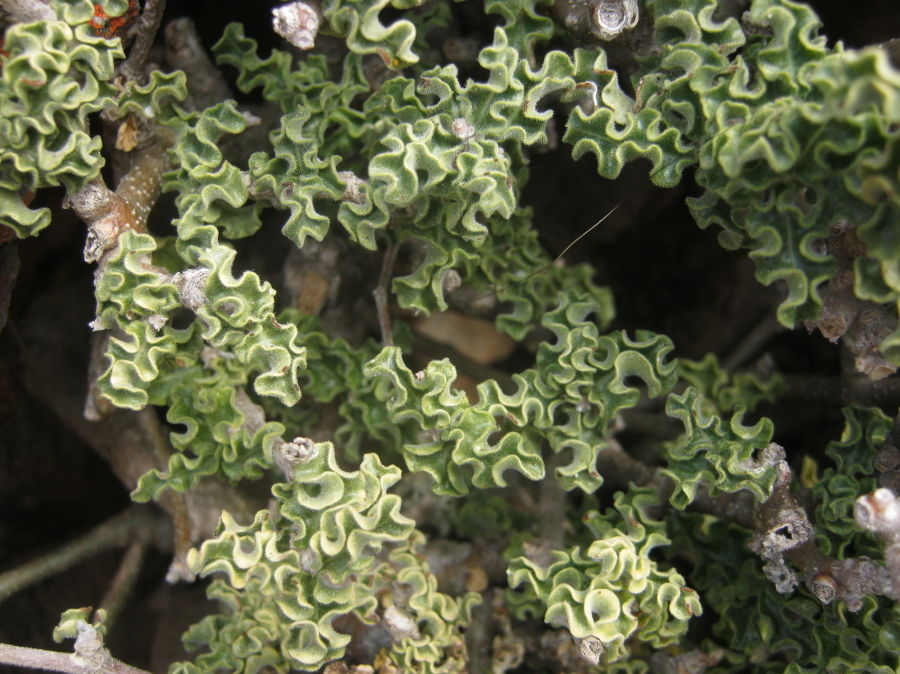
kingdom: Plantae
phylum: Tracheophyta
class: Magnoliopsida
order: Gentianales
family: Apocynaceae
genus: Fockea
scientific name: Fockea capensis
